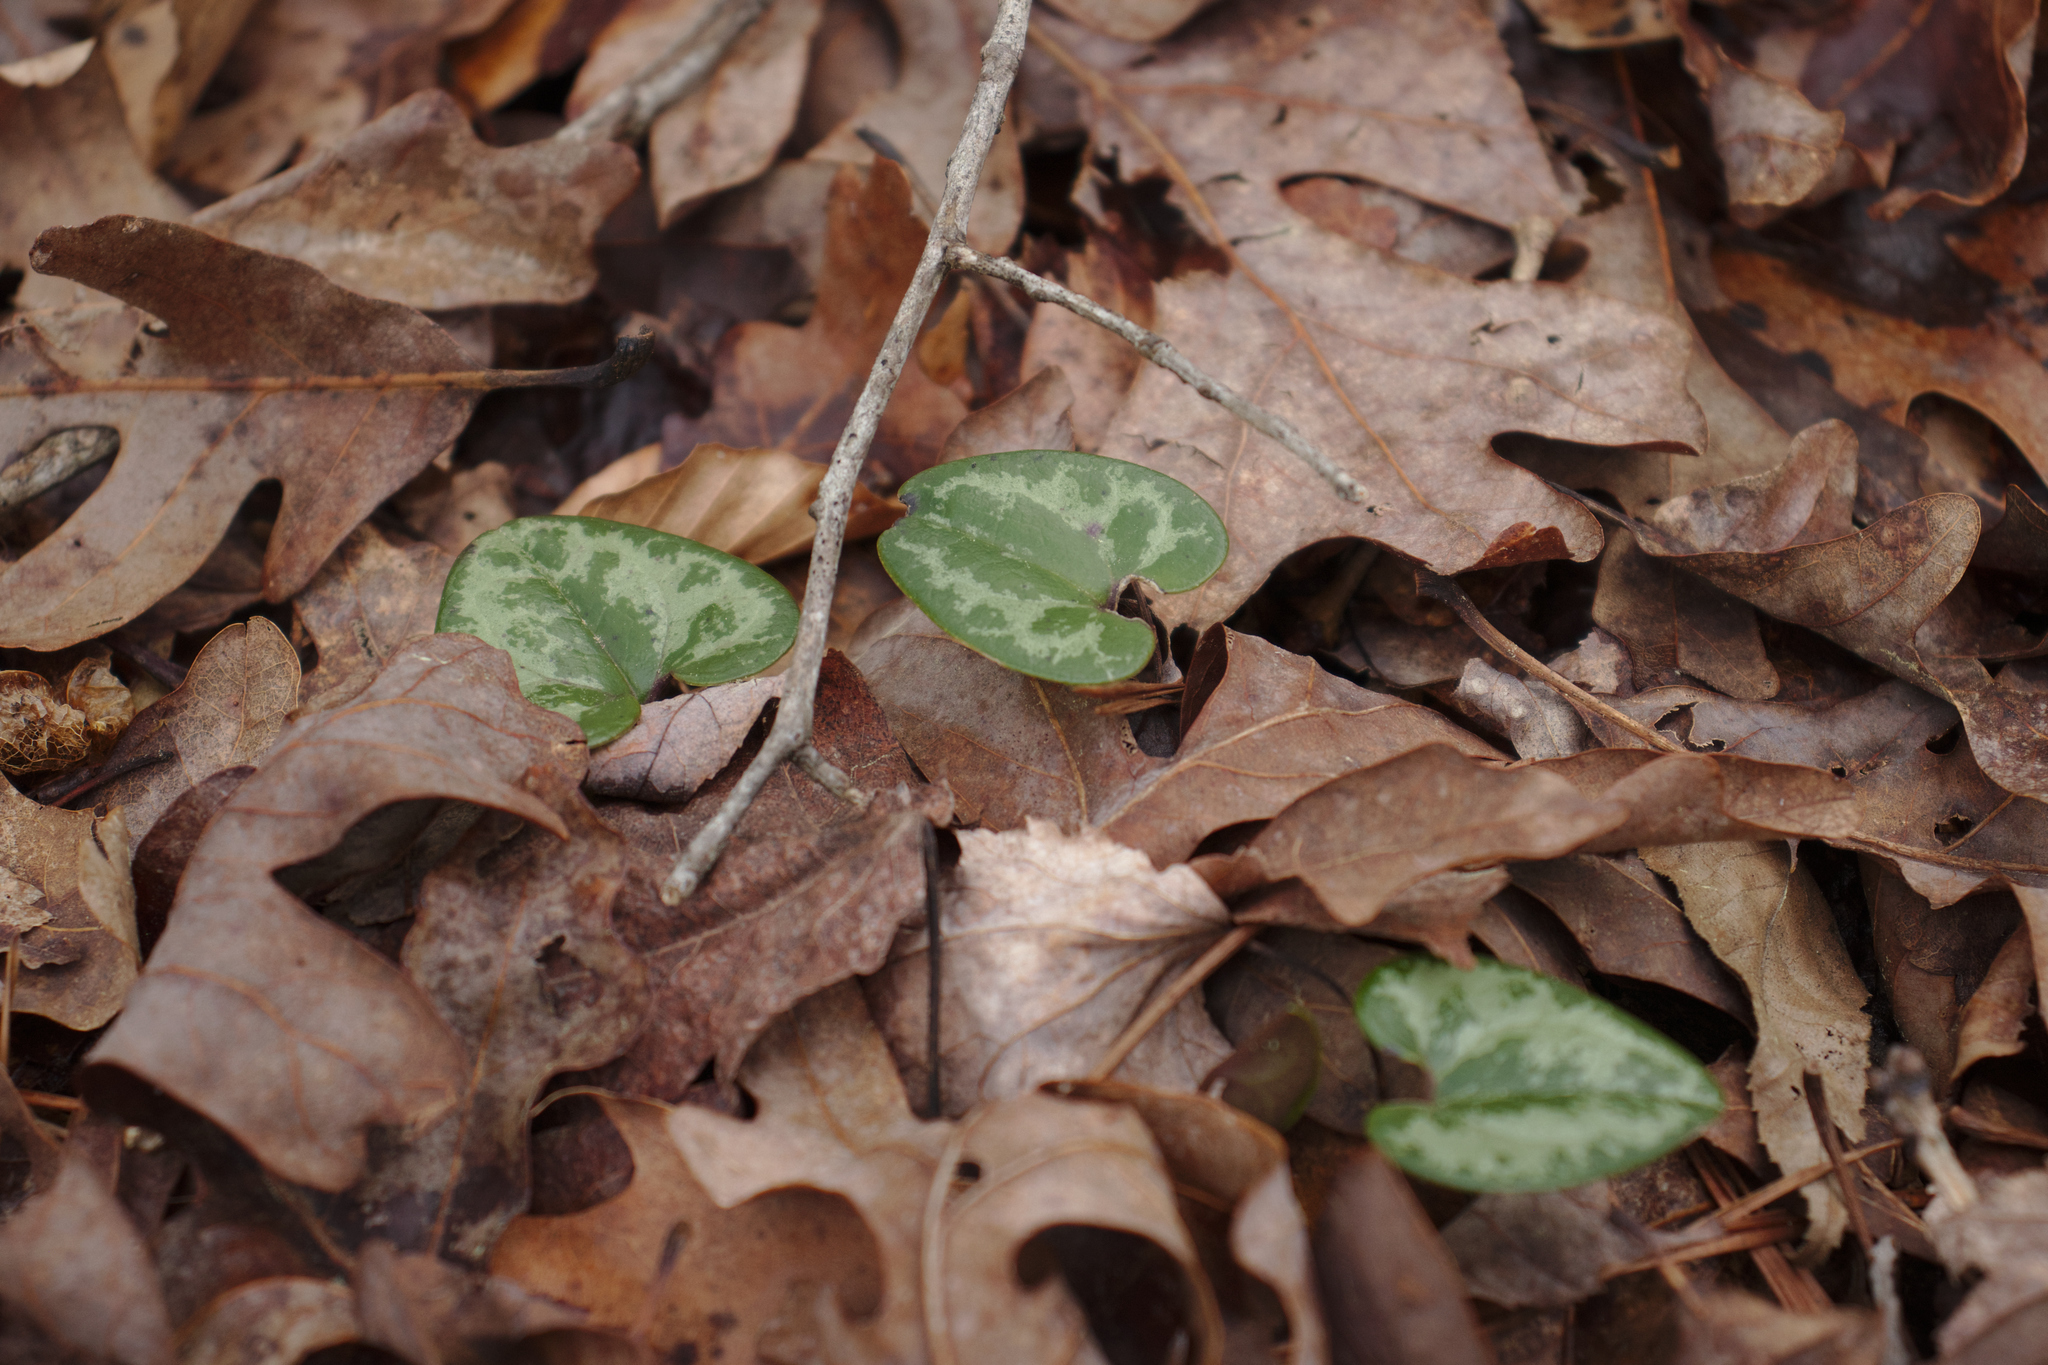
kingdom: Plantae
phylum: Tracheophyta
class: Magnoliopsida
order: Piperales
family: Aristolochiaceae
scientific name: Aristolochiaceae
